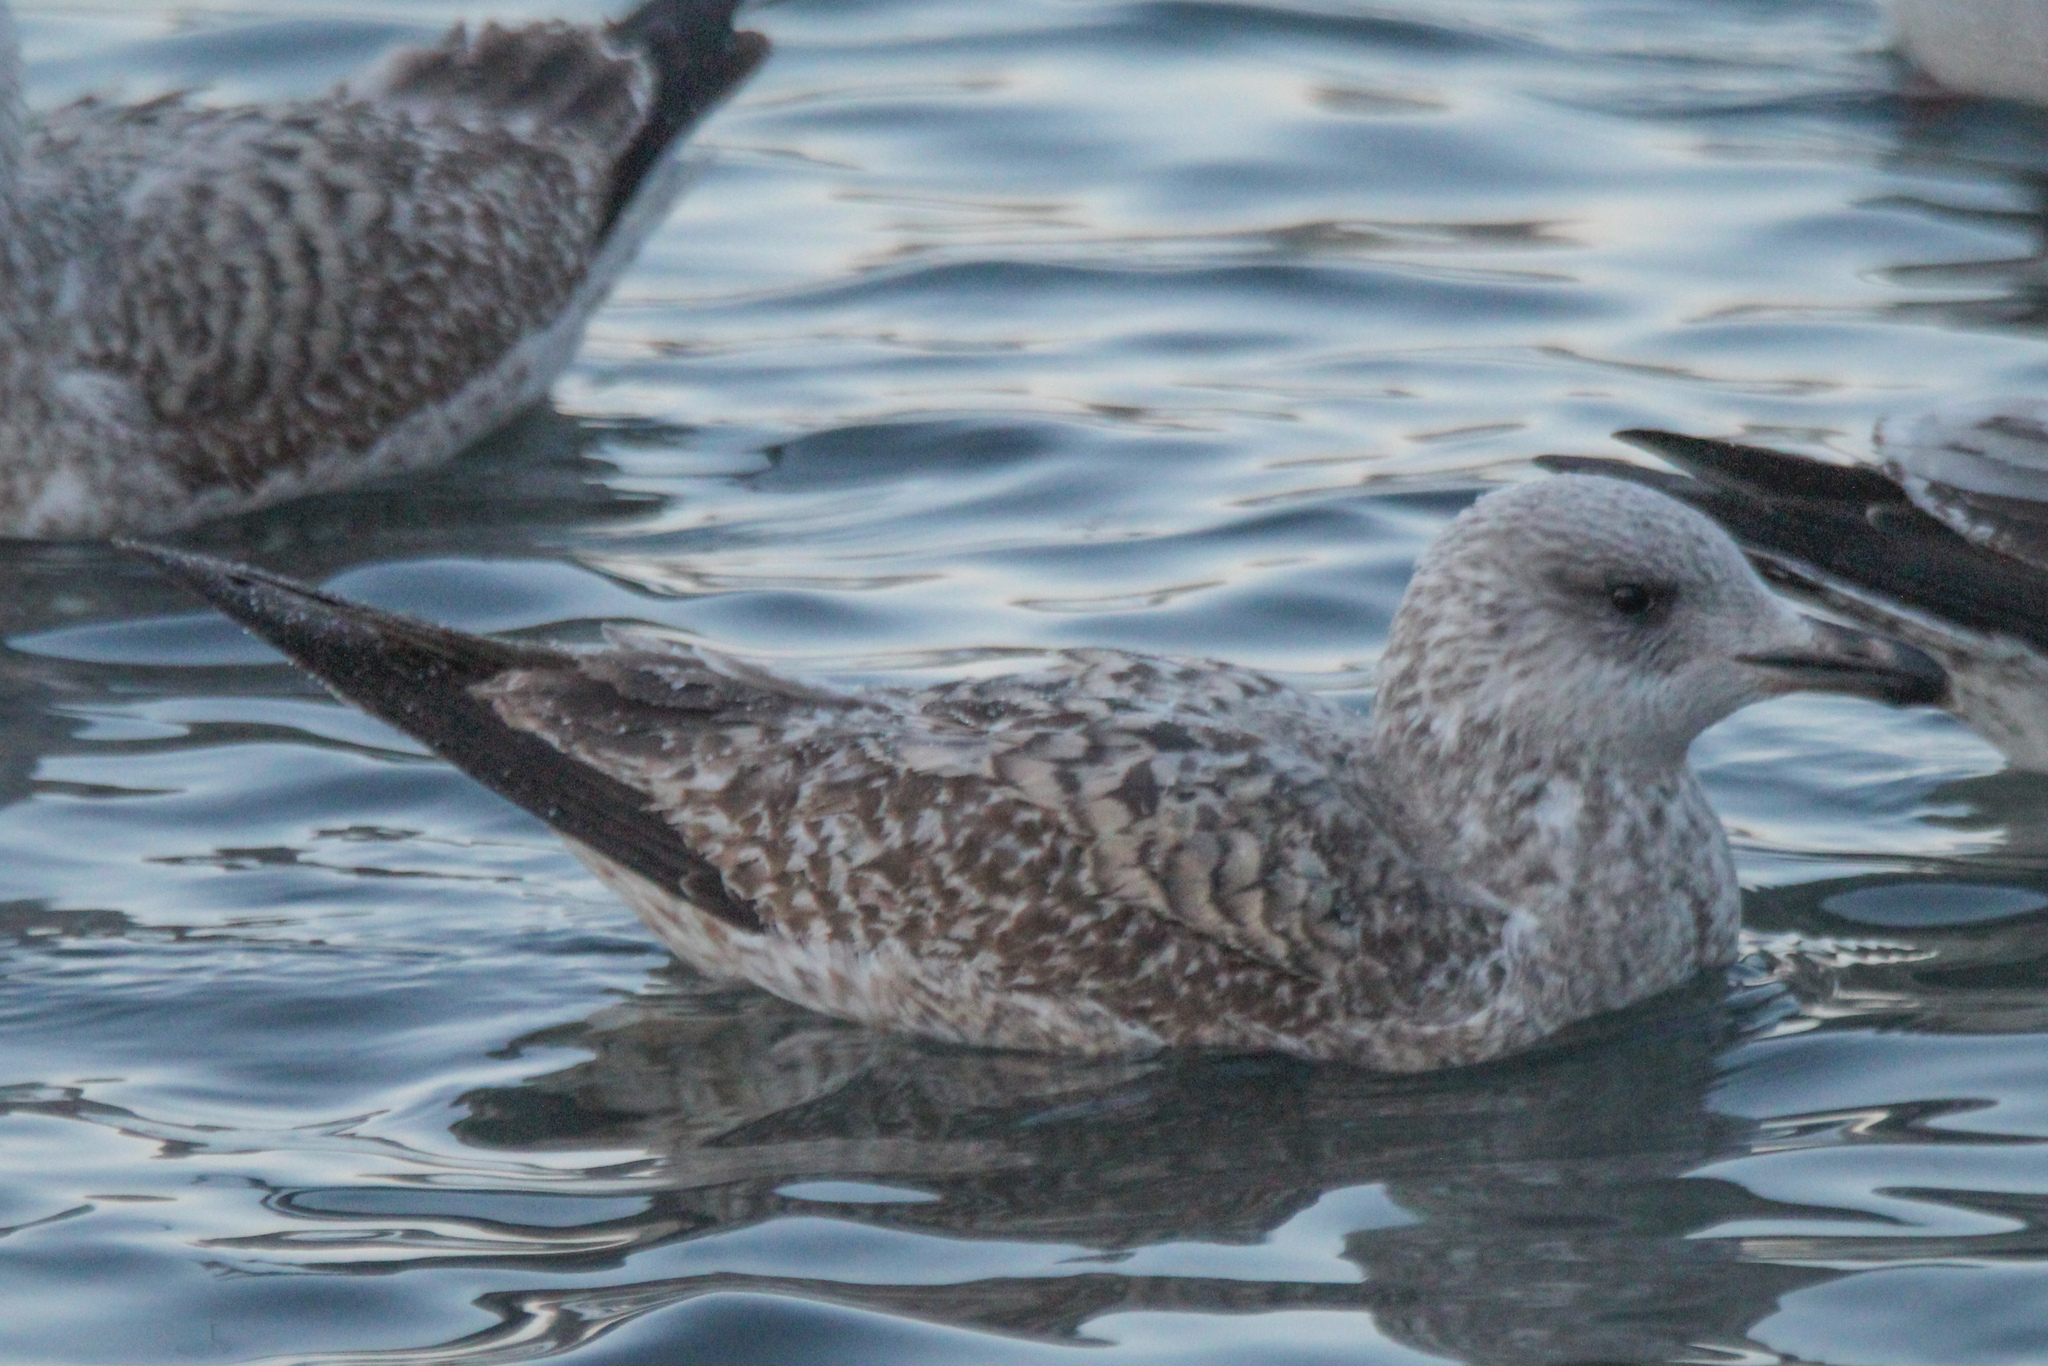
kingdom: Animalia
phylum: Chordata
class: Aves
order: Charadriiformes
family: Laridae
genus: Larus
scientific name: Larus argentatus
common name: Herring gull
